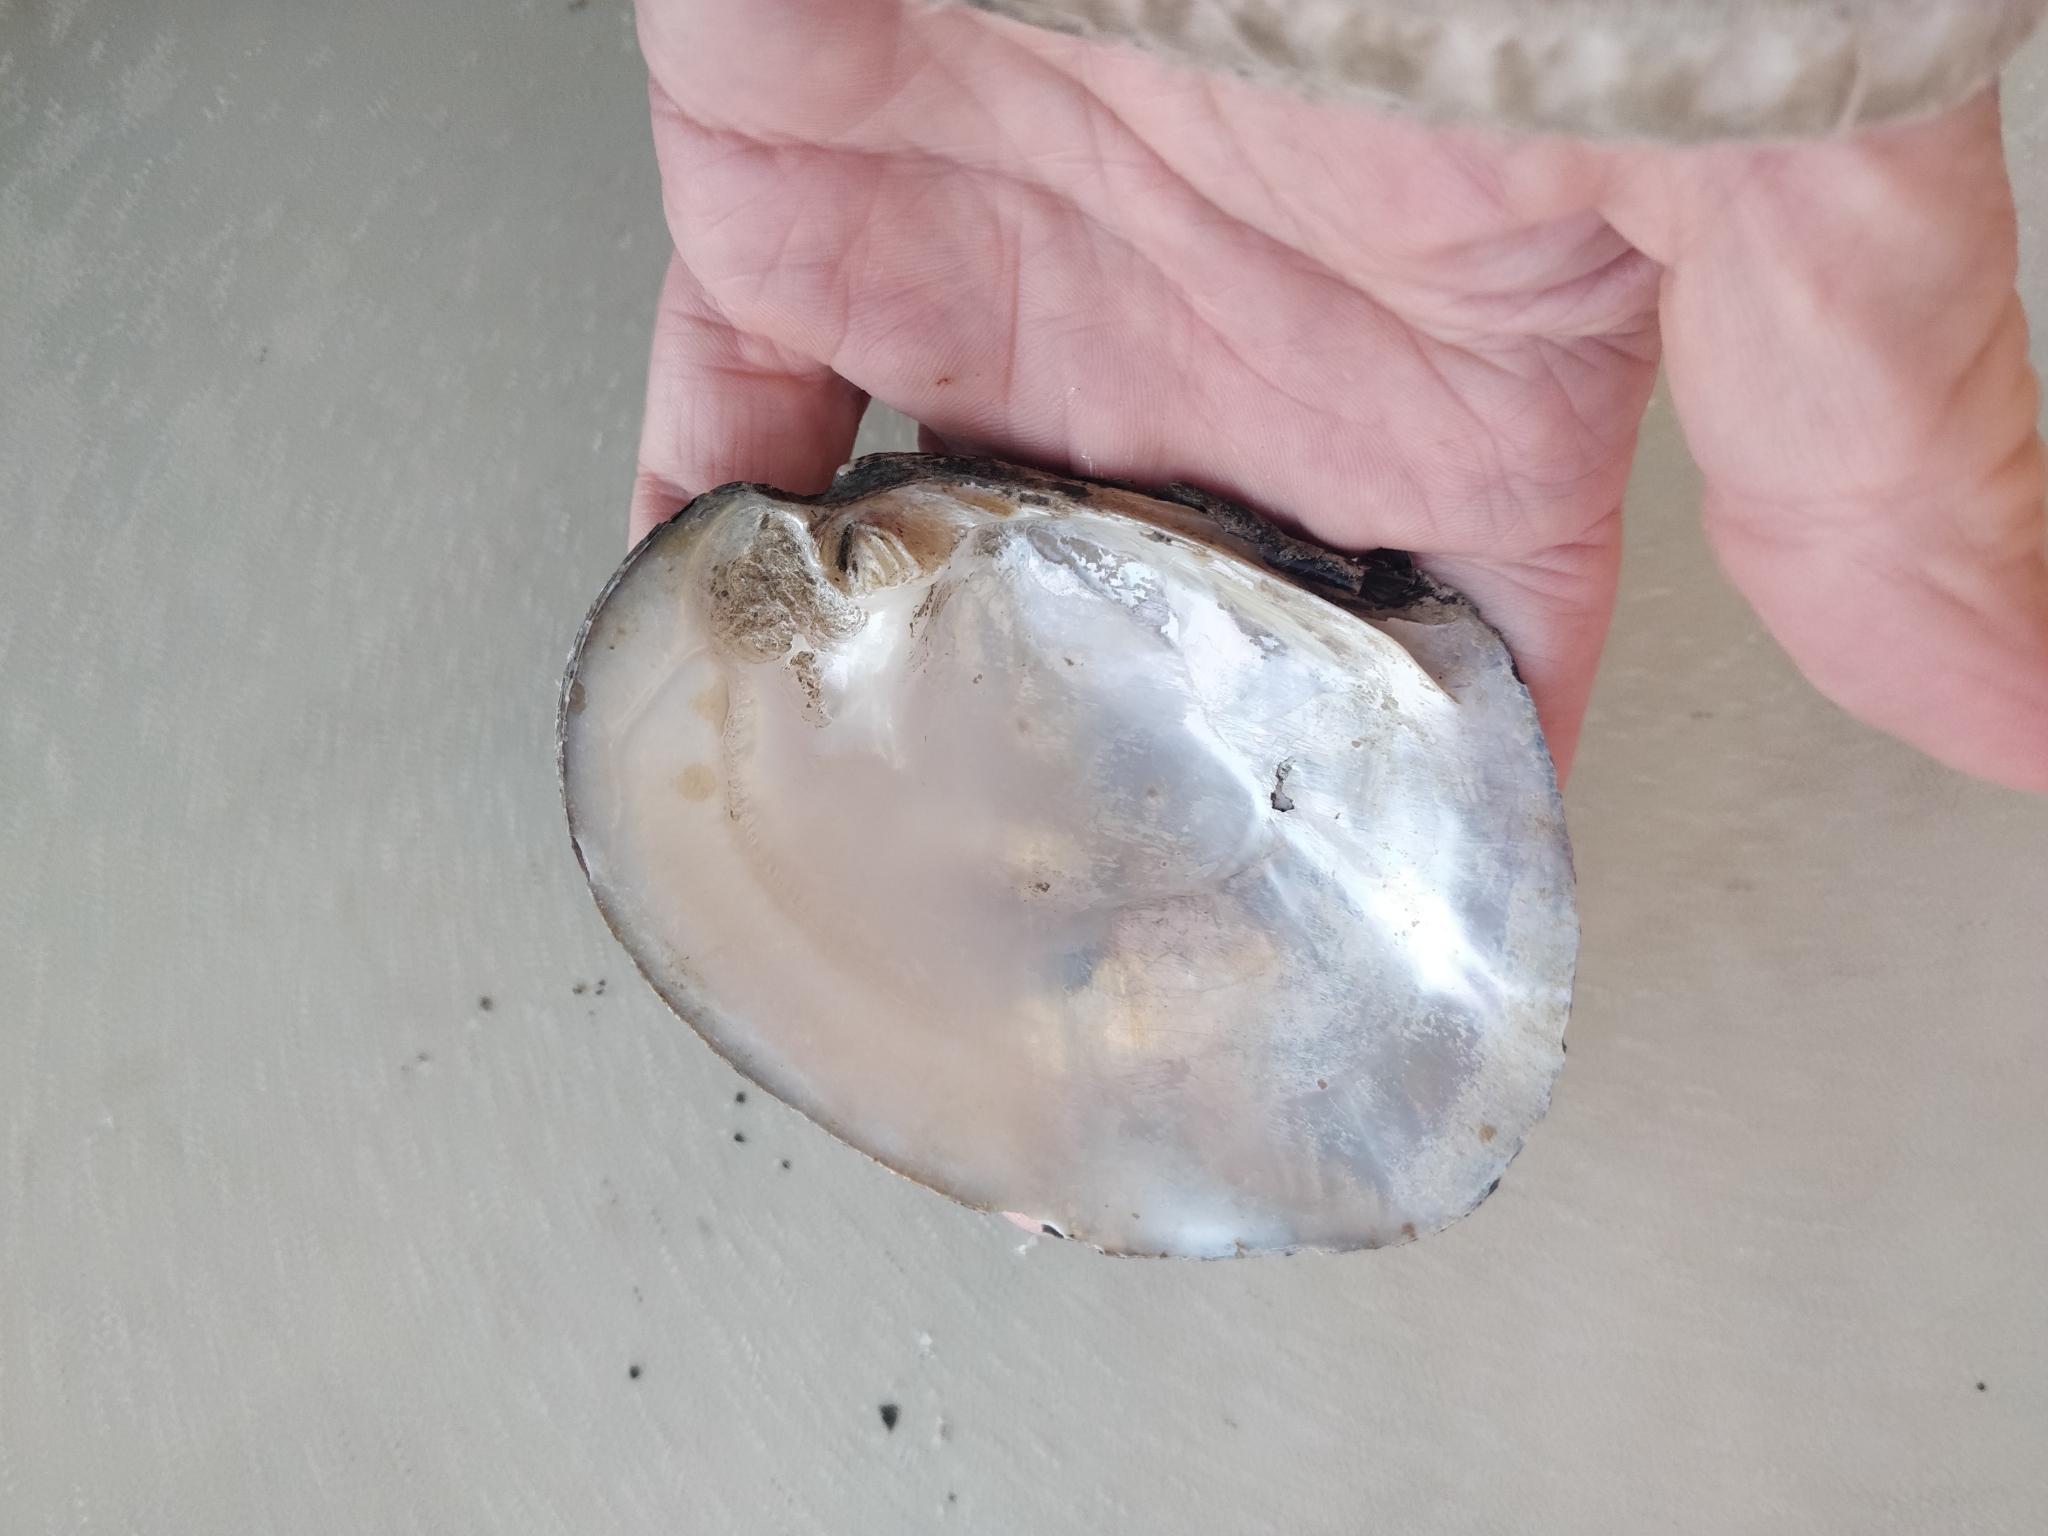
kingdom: Animalia
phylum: Mollusca
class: Bivalvia
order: Unionida
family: Unionidae
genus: Amblema
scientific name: Amblema plicata
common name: Threeridge
